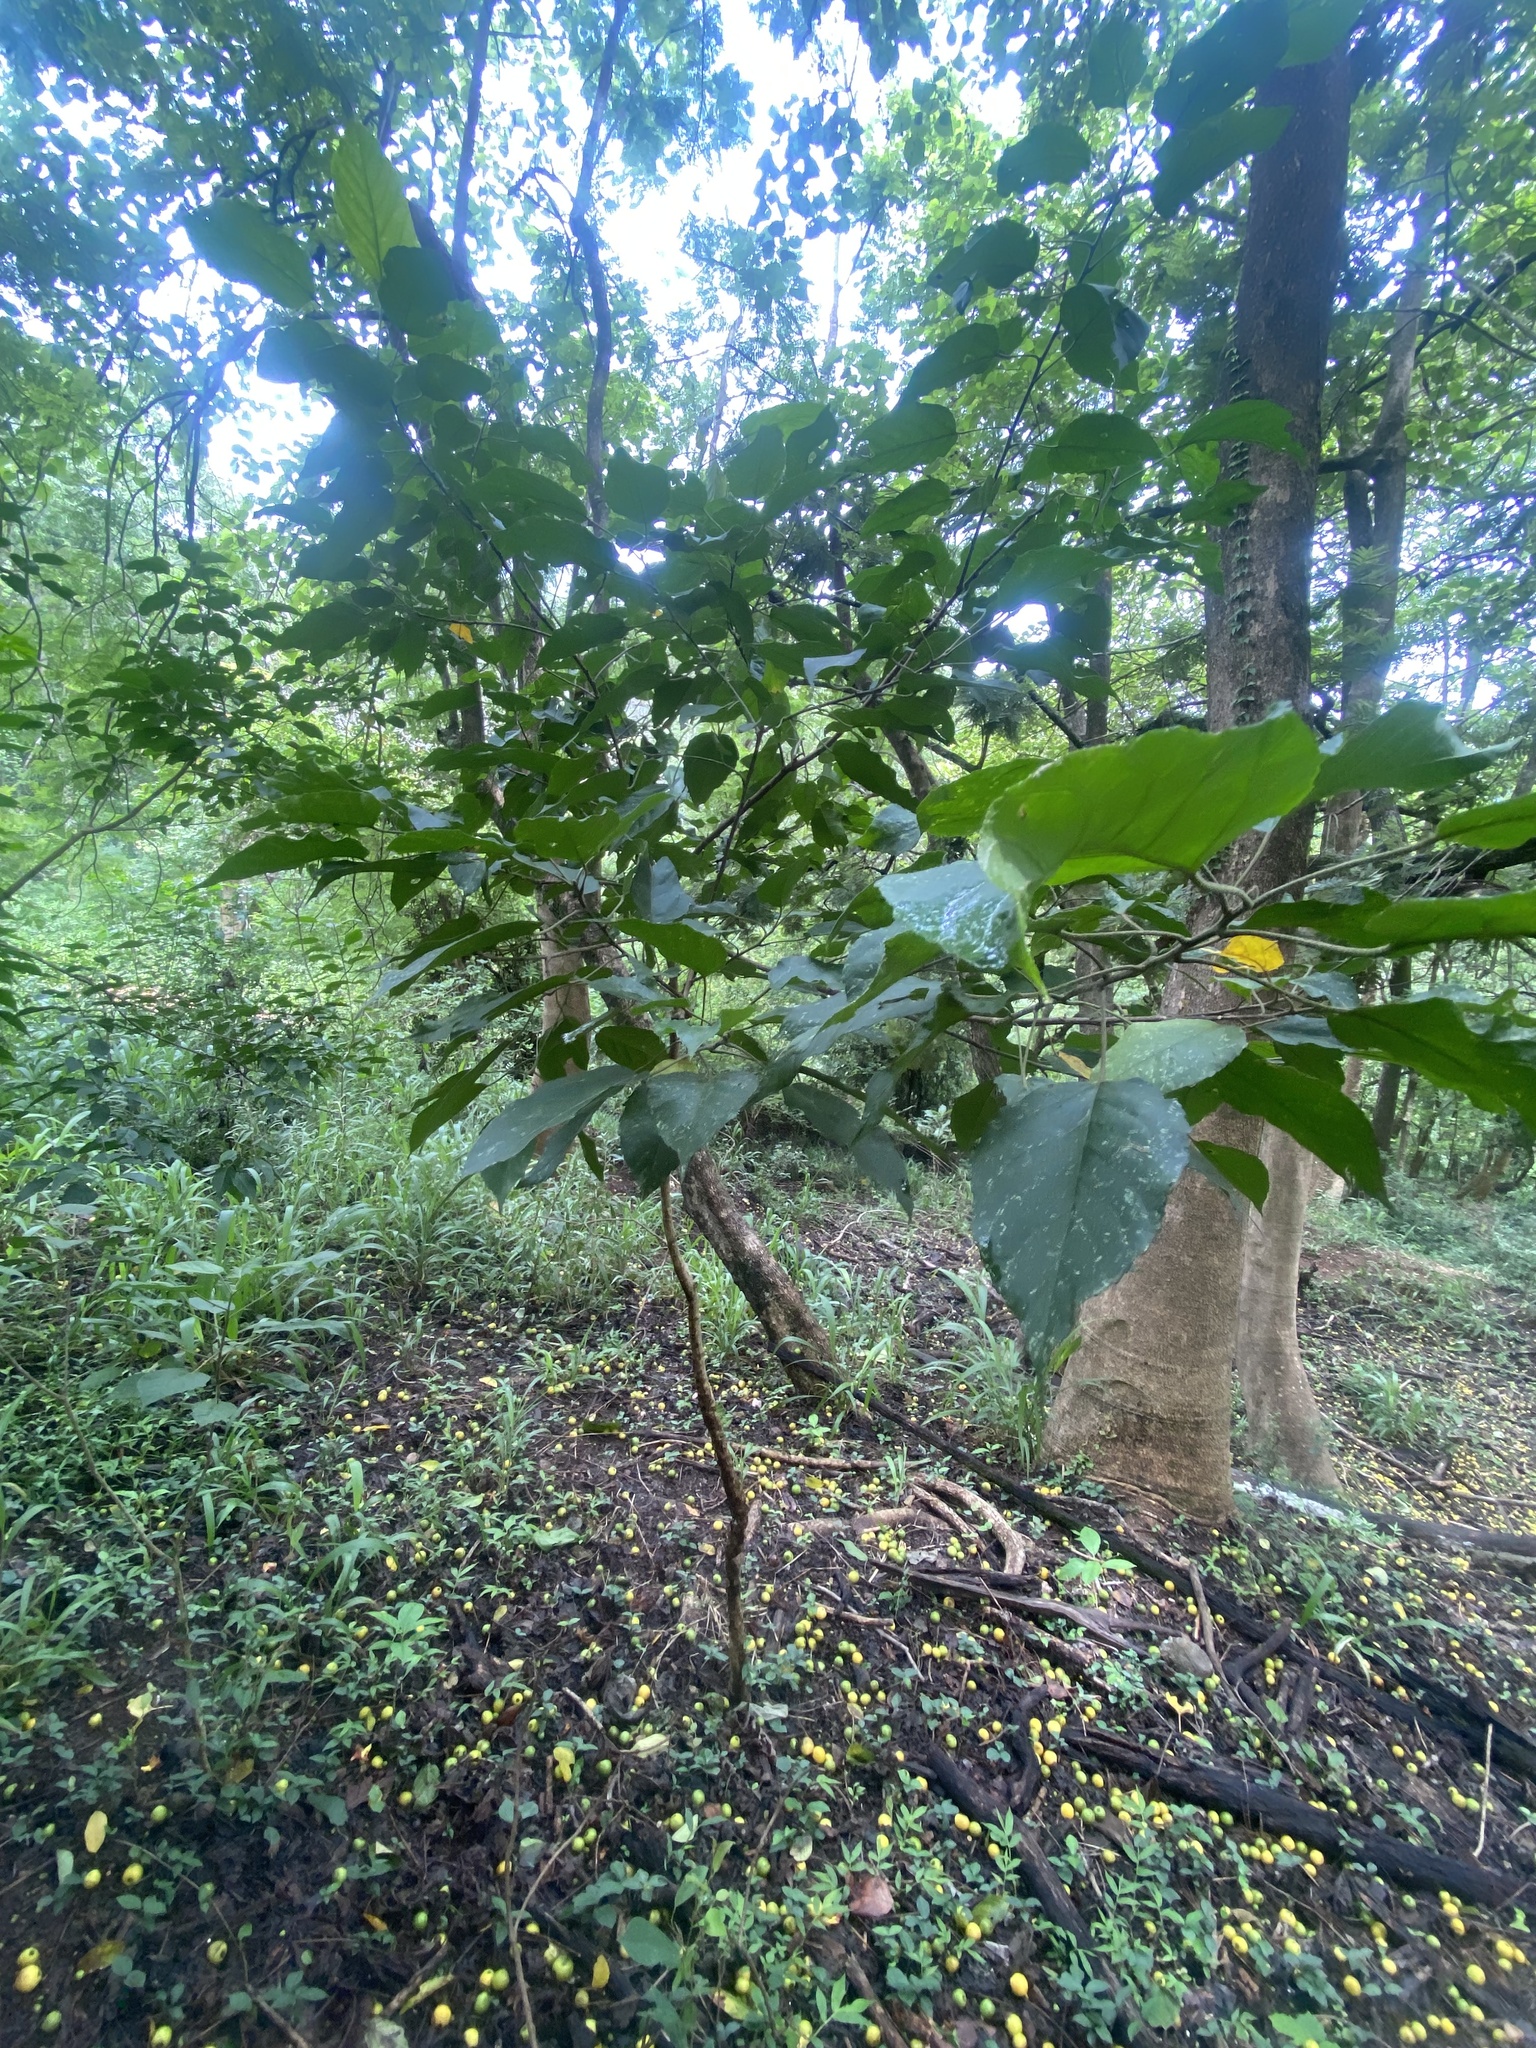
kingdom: Plantae
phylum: Tracheophyta
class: Magnoliopsida
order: Malpighiales
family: Euphorbiaceae
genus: Croton
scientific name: Croton sylvaticus
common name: Forest croton
